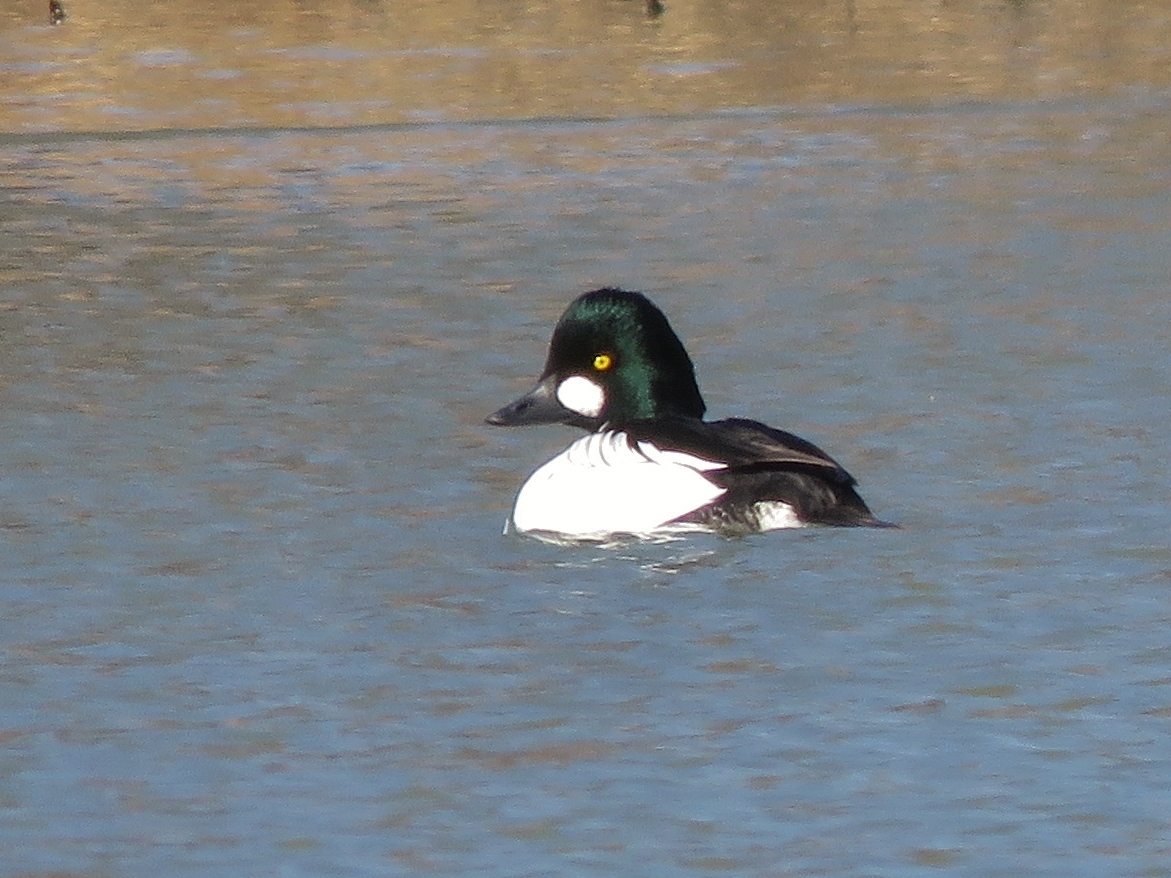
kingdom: Animalia
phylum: Chordata
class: Aves
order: Anseriformes
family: Anatidae
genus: Bucephala
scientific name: Bucephala clangula
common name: Common goldeneye
